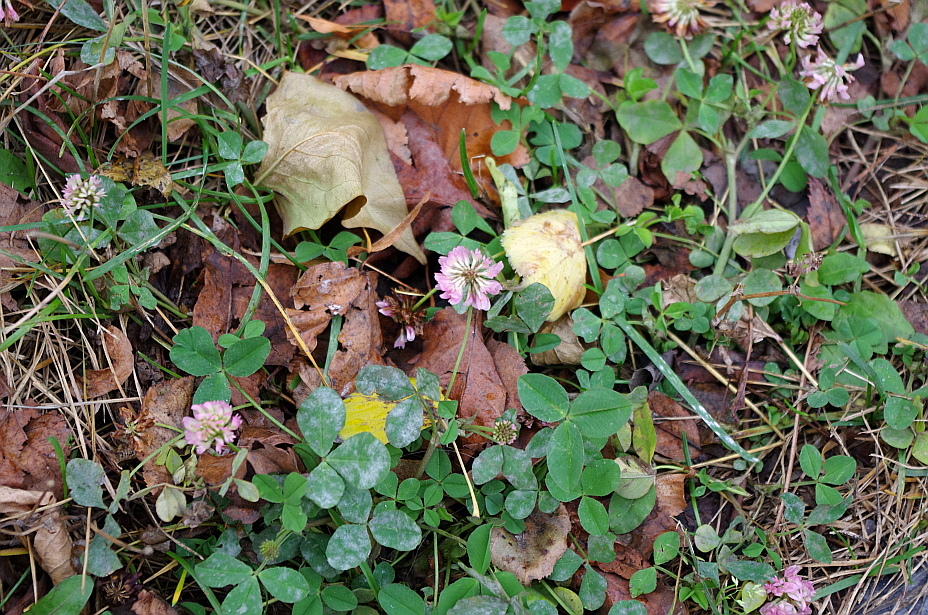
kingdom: Plantae
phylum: Tracheophyta
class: Magnoliopsida
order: Fabales
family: Fabaceae
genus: Trifolium
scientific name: Trifolium hybridum
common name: Alsike clover
